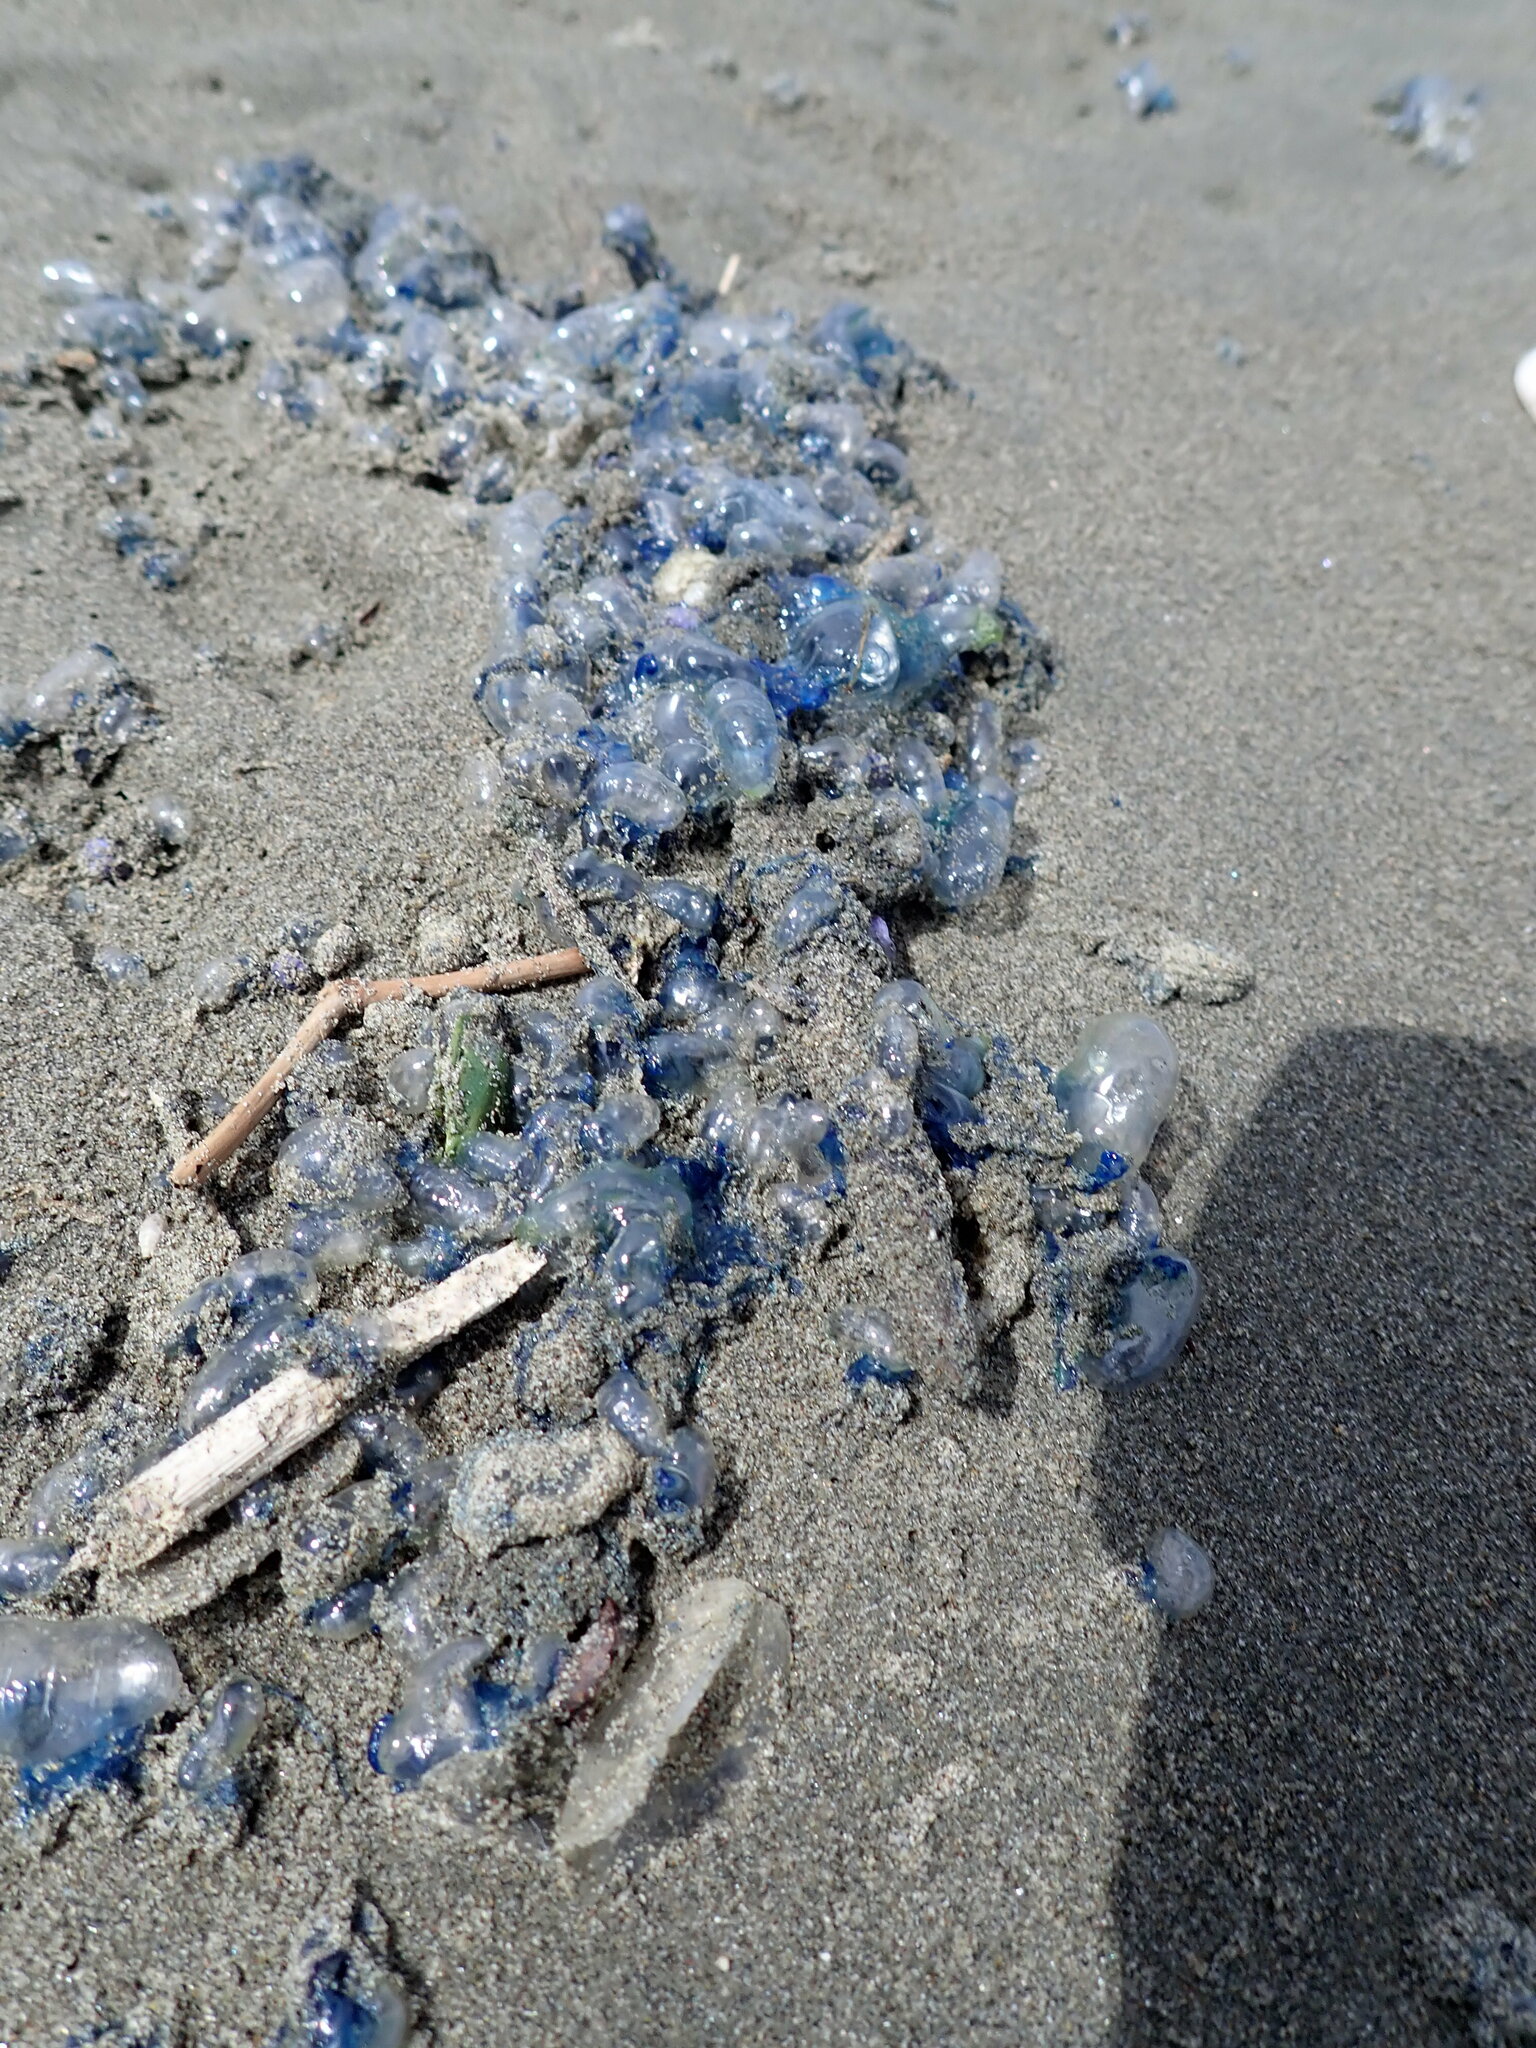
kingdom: Animalia
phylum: Cnidaria
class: Hydrozoa
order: Siphonophorae
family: Physaliidae
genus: Physalia
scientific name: Physalia physalis
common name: Portuguese man-of-war
